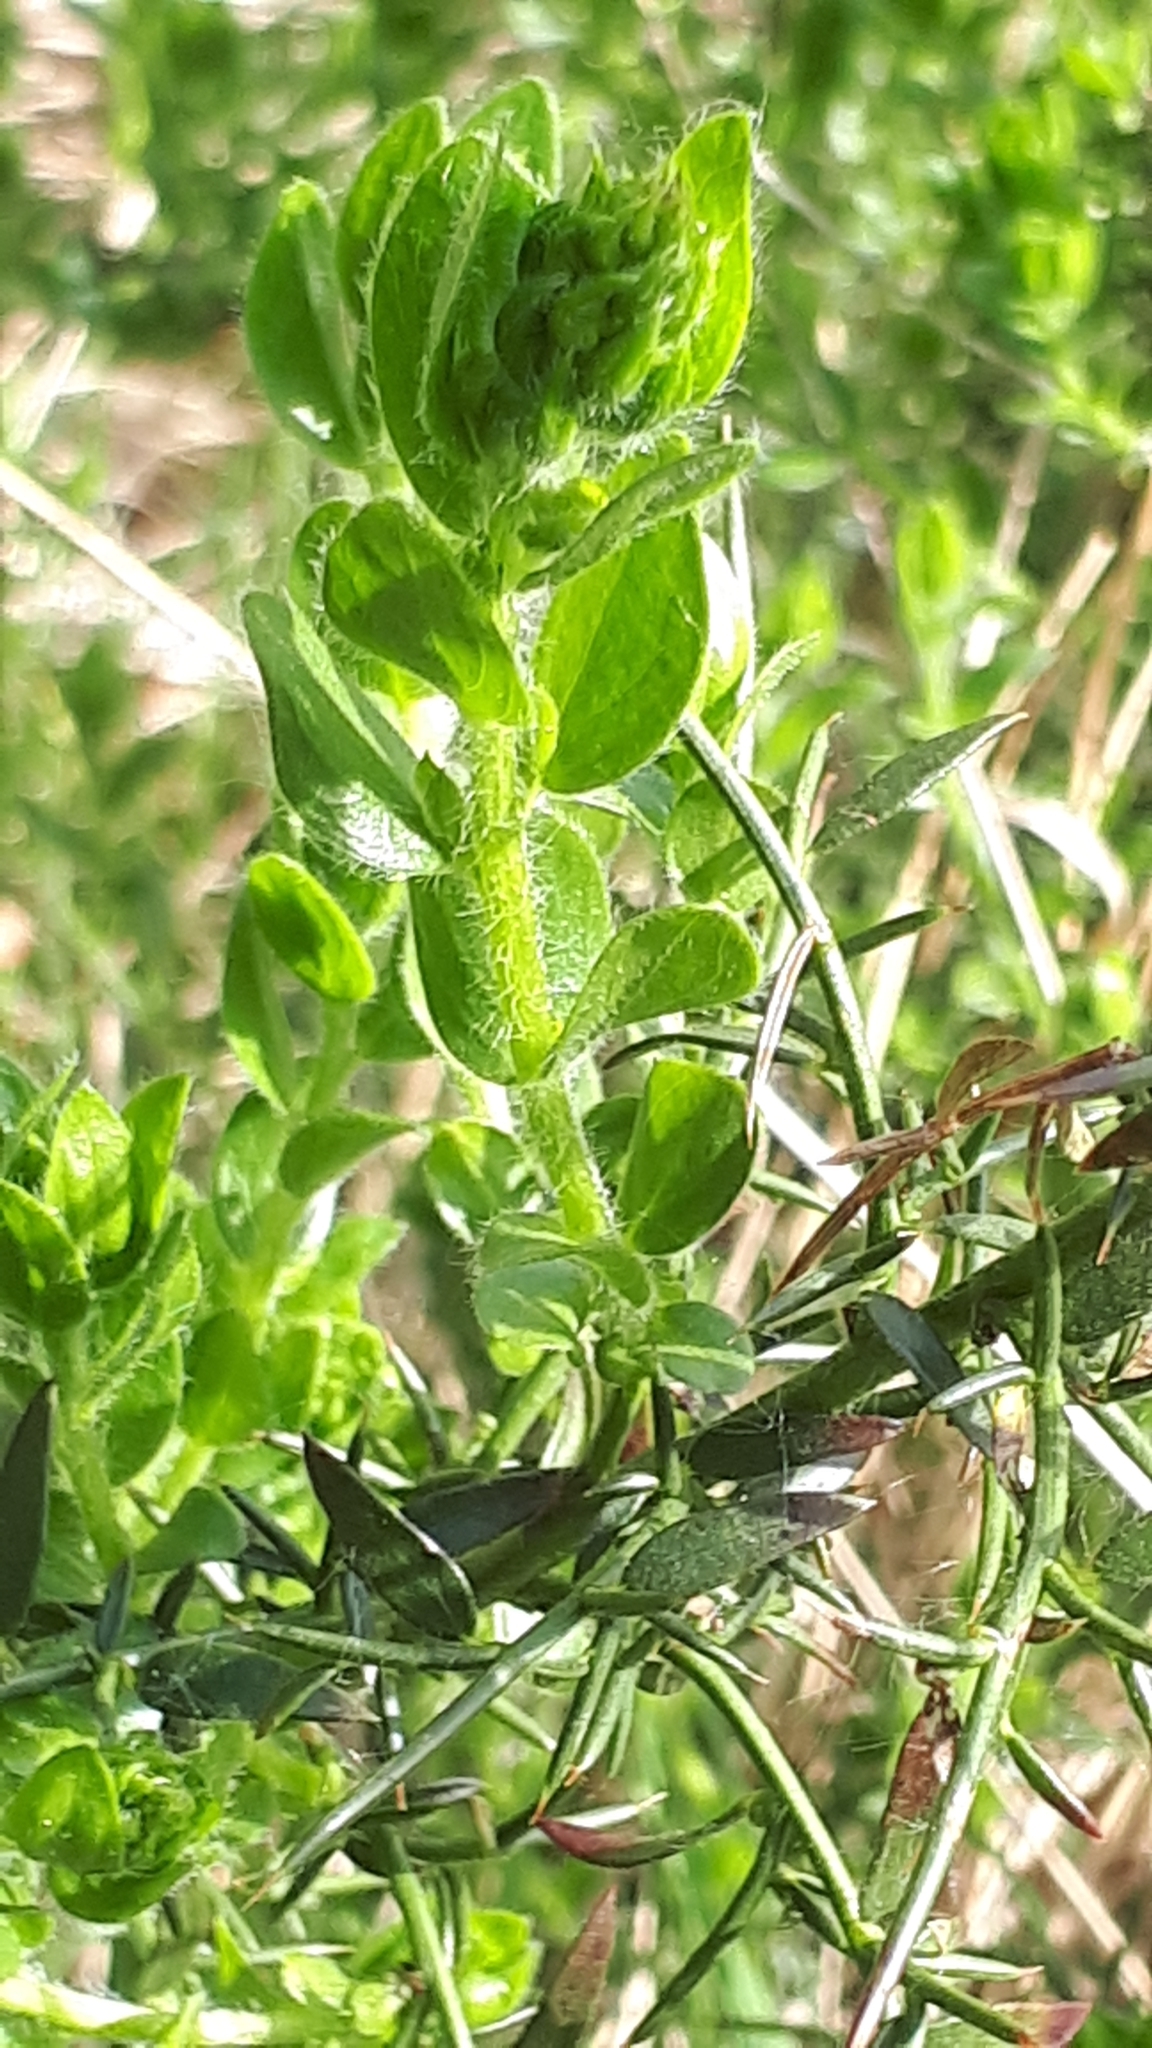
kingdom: Plantae
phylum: Tracheophyta
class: Magnoliopsida
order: Fabales
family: Fabaceae
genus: Genista
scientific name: Genista germanica
